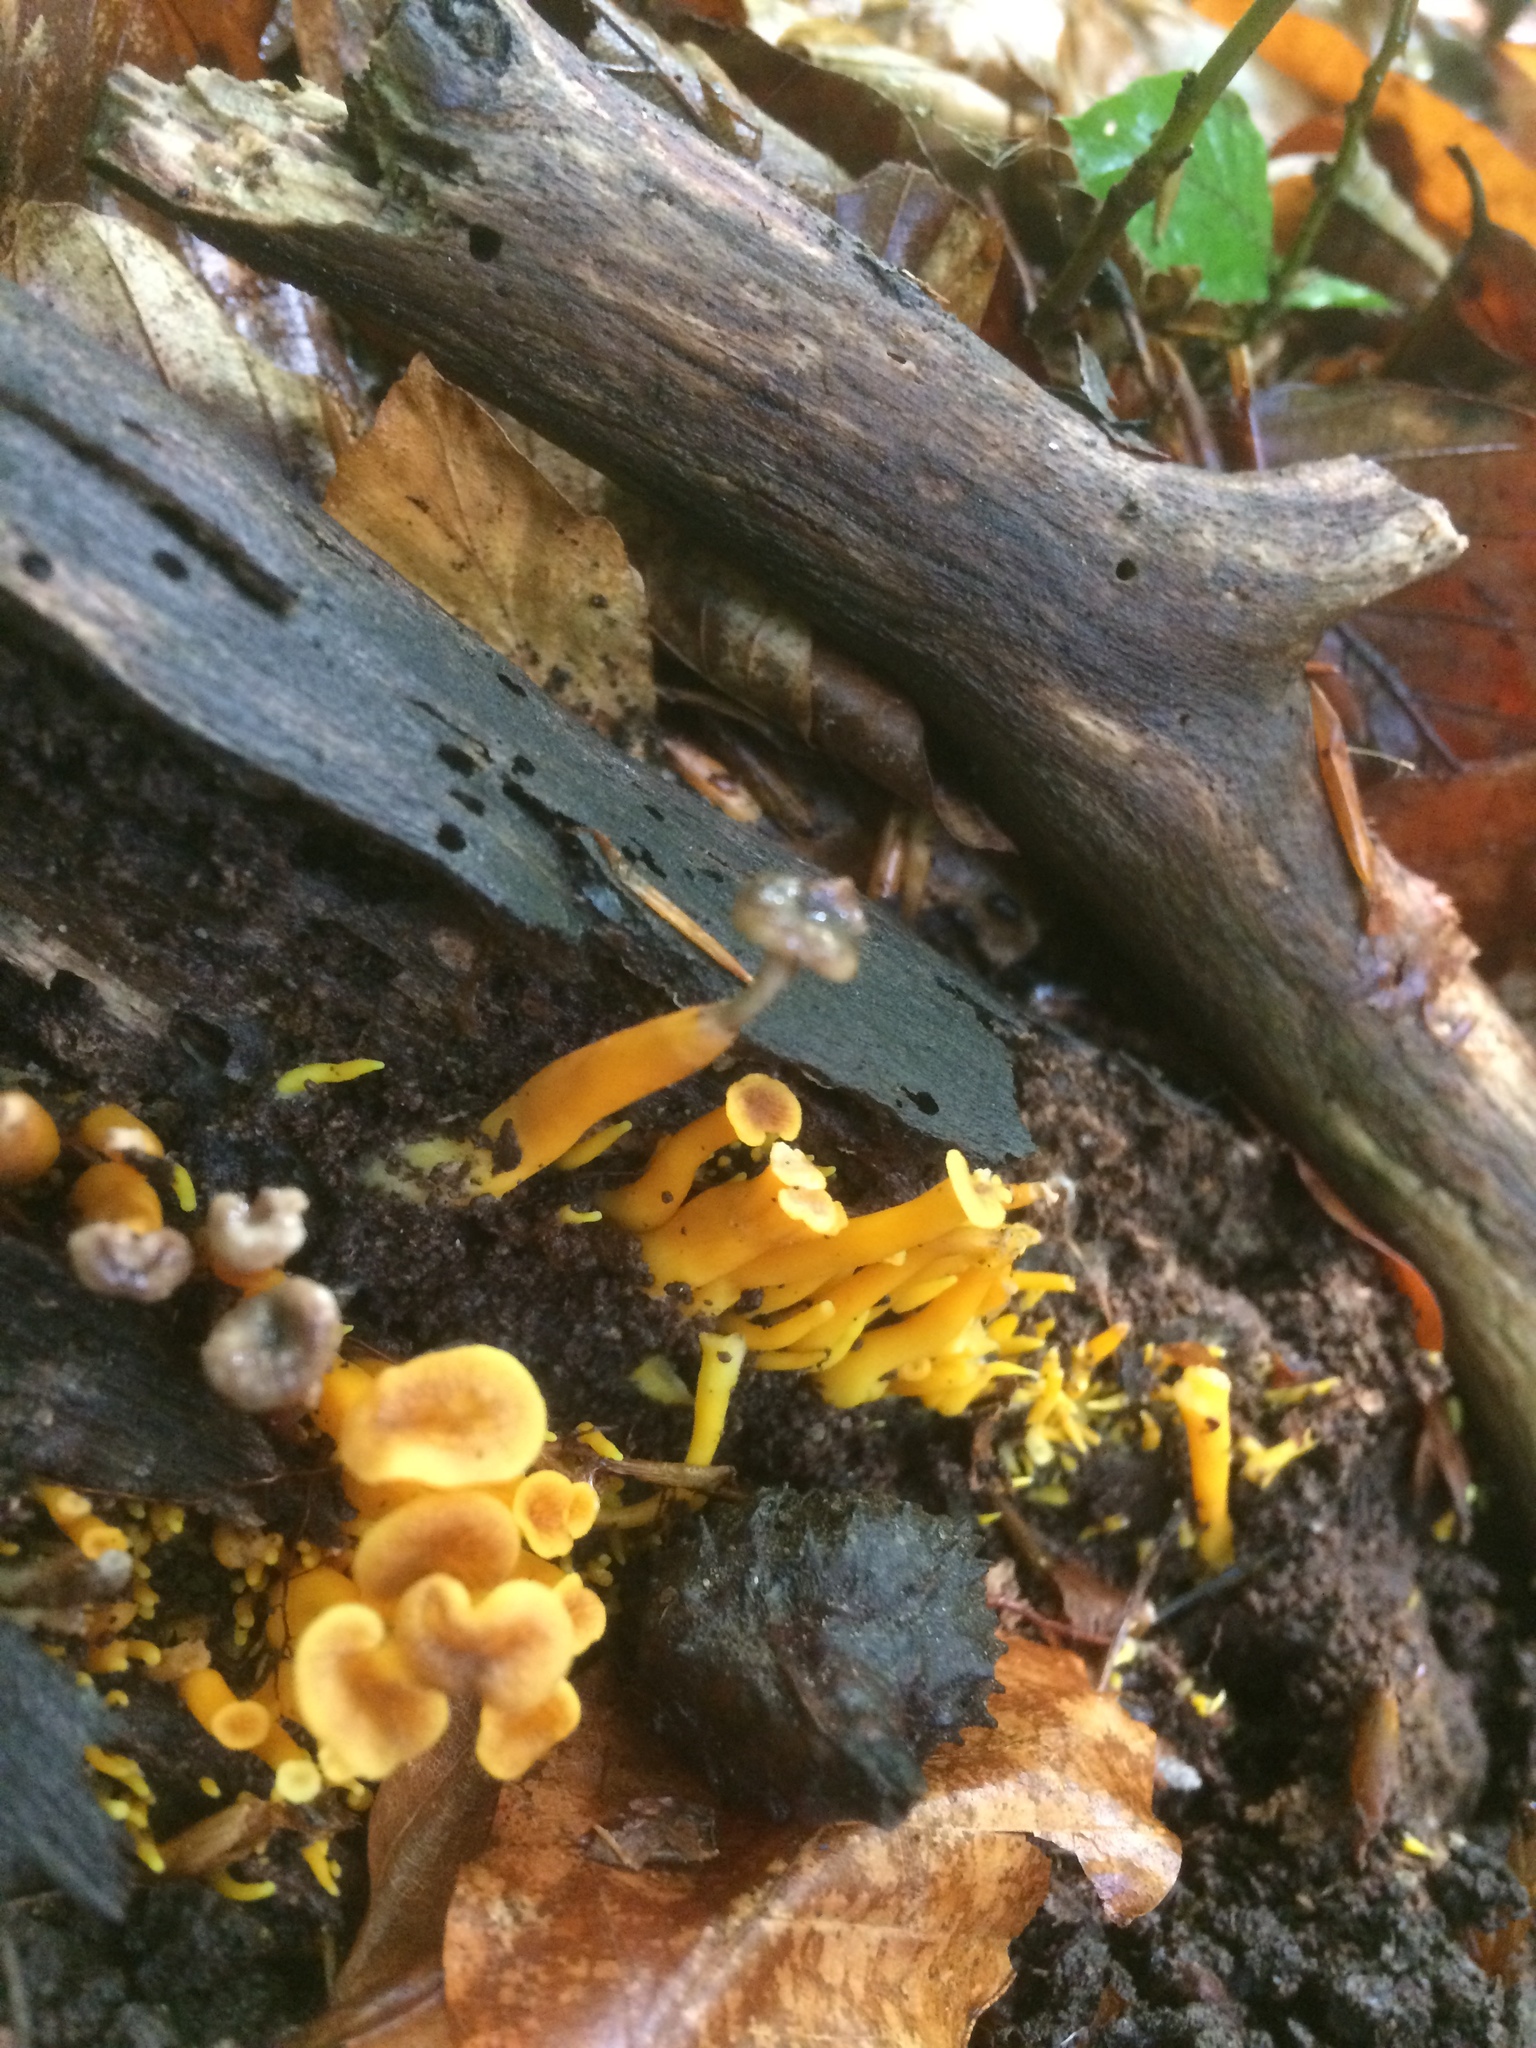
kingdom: Fungi
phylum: Basidiomycota
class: Agaricomycetes
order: Cantharellales
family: Hydnaceae
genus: Craterellus
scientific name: Craterellus tubaeformis
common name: Yellowfoot
